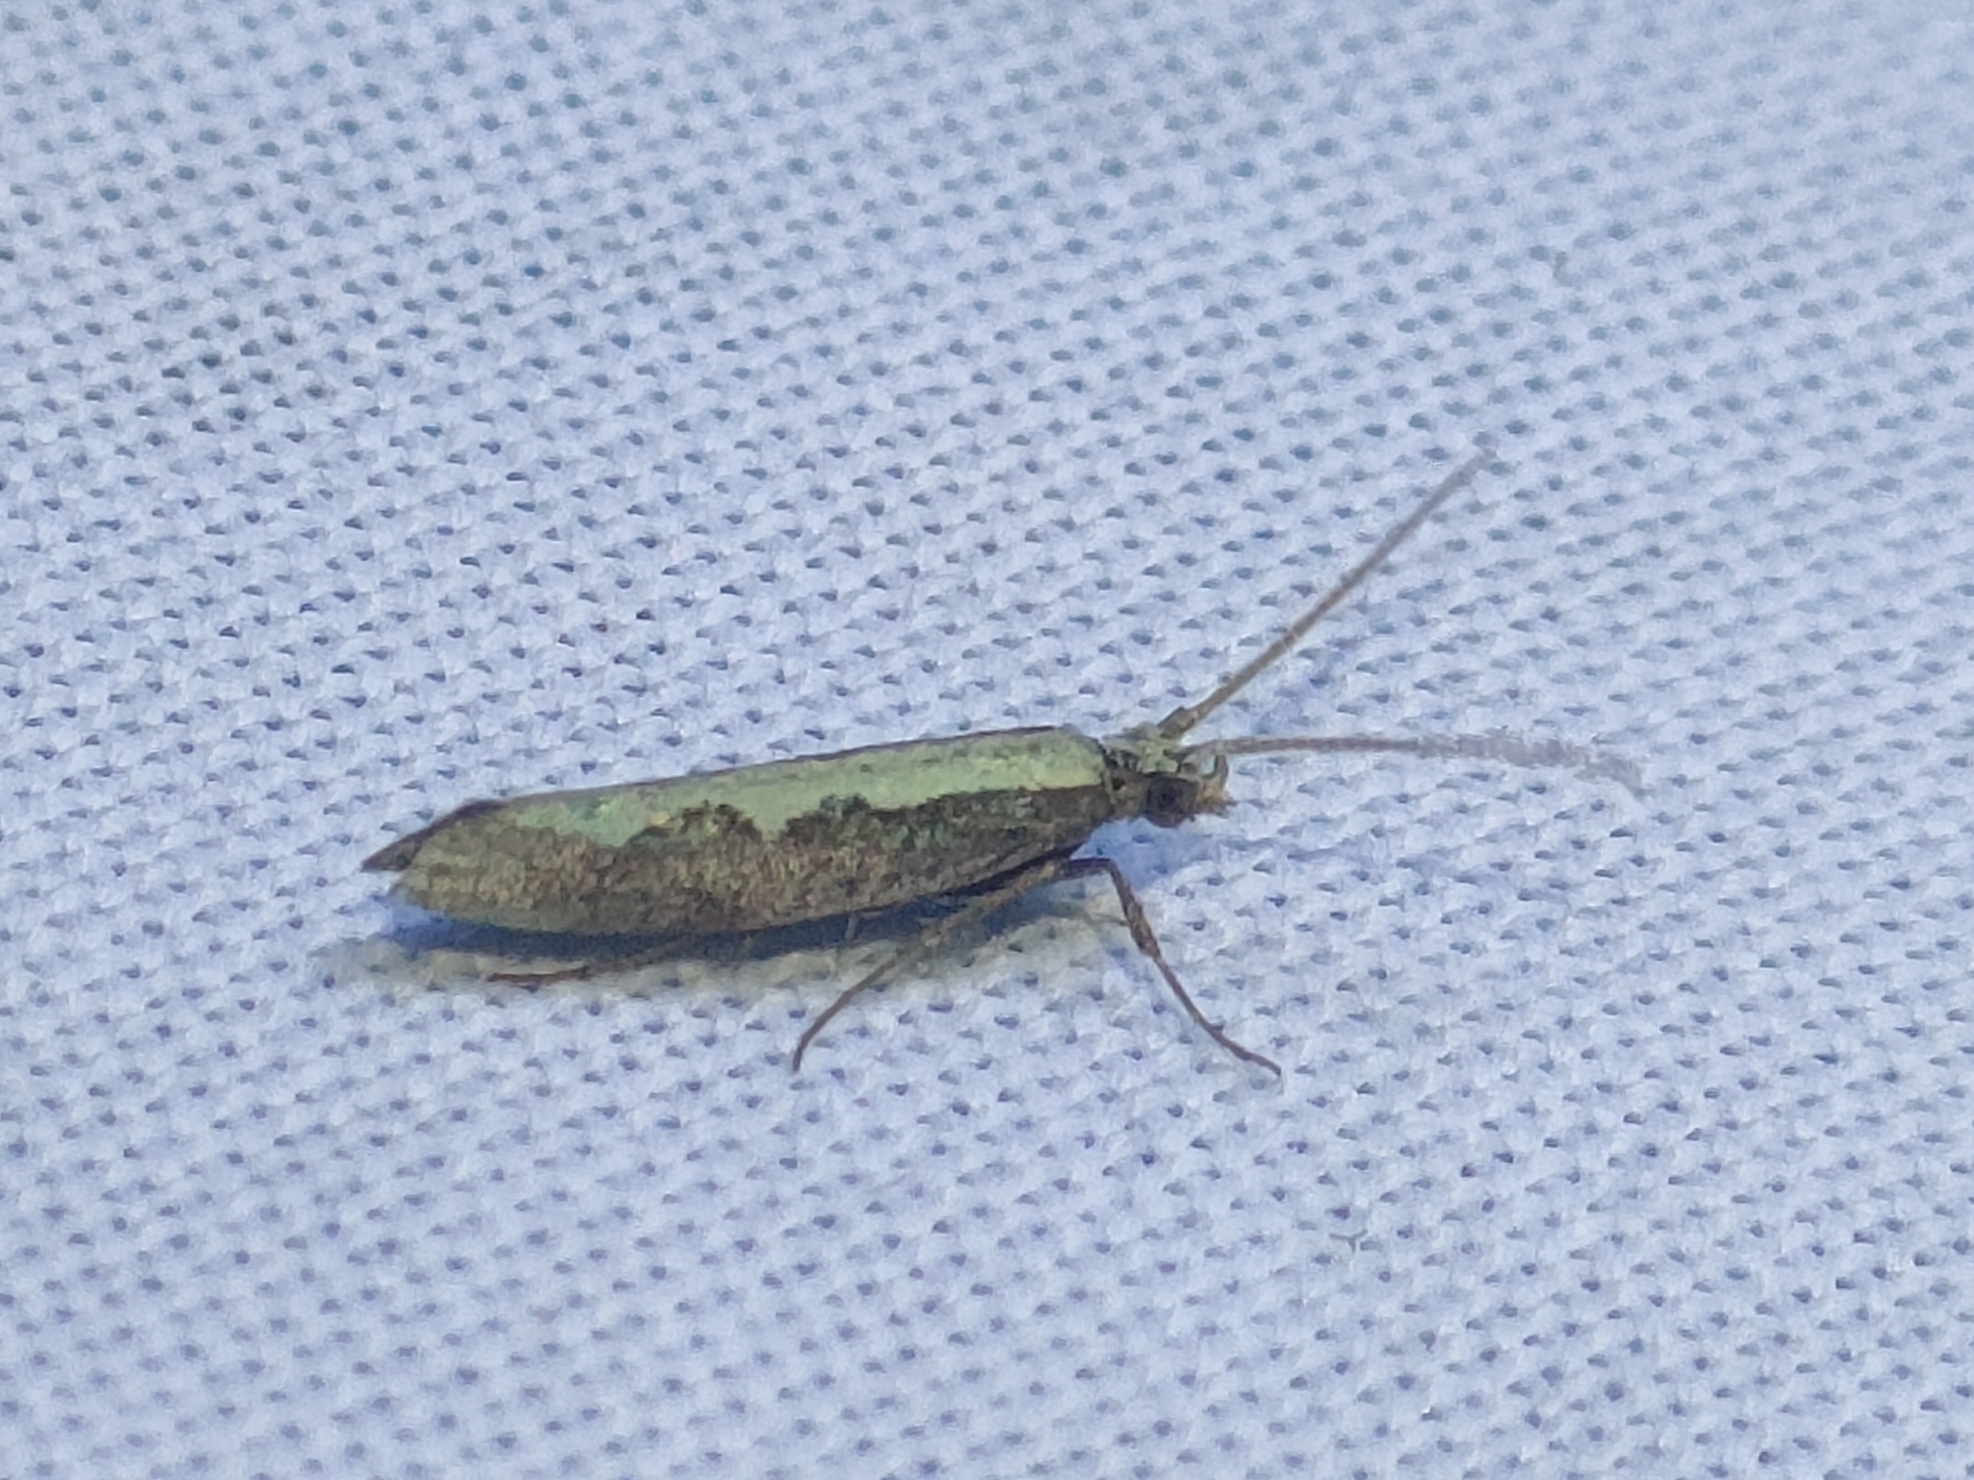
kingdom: Animalia
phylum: Arthropoda
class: Insecta
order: Lepidoptera
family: Plutellidae
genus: Plutella
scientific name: Plutella xylostella
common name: Diamond-back moth
